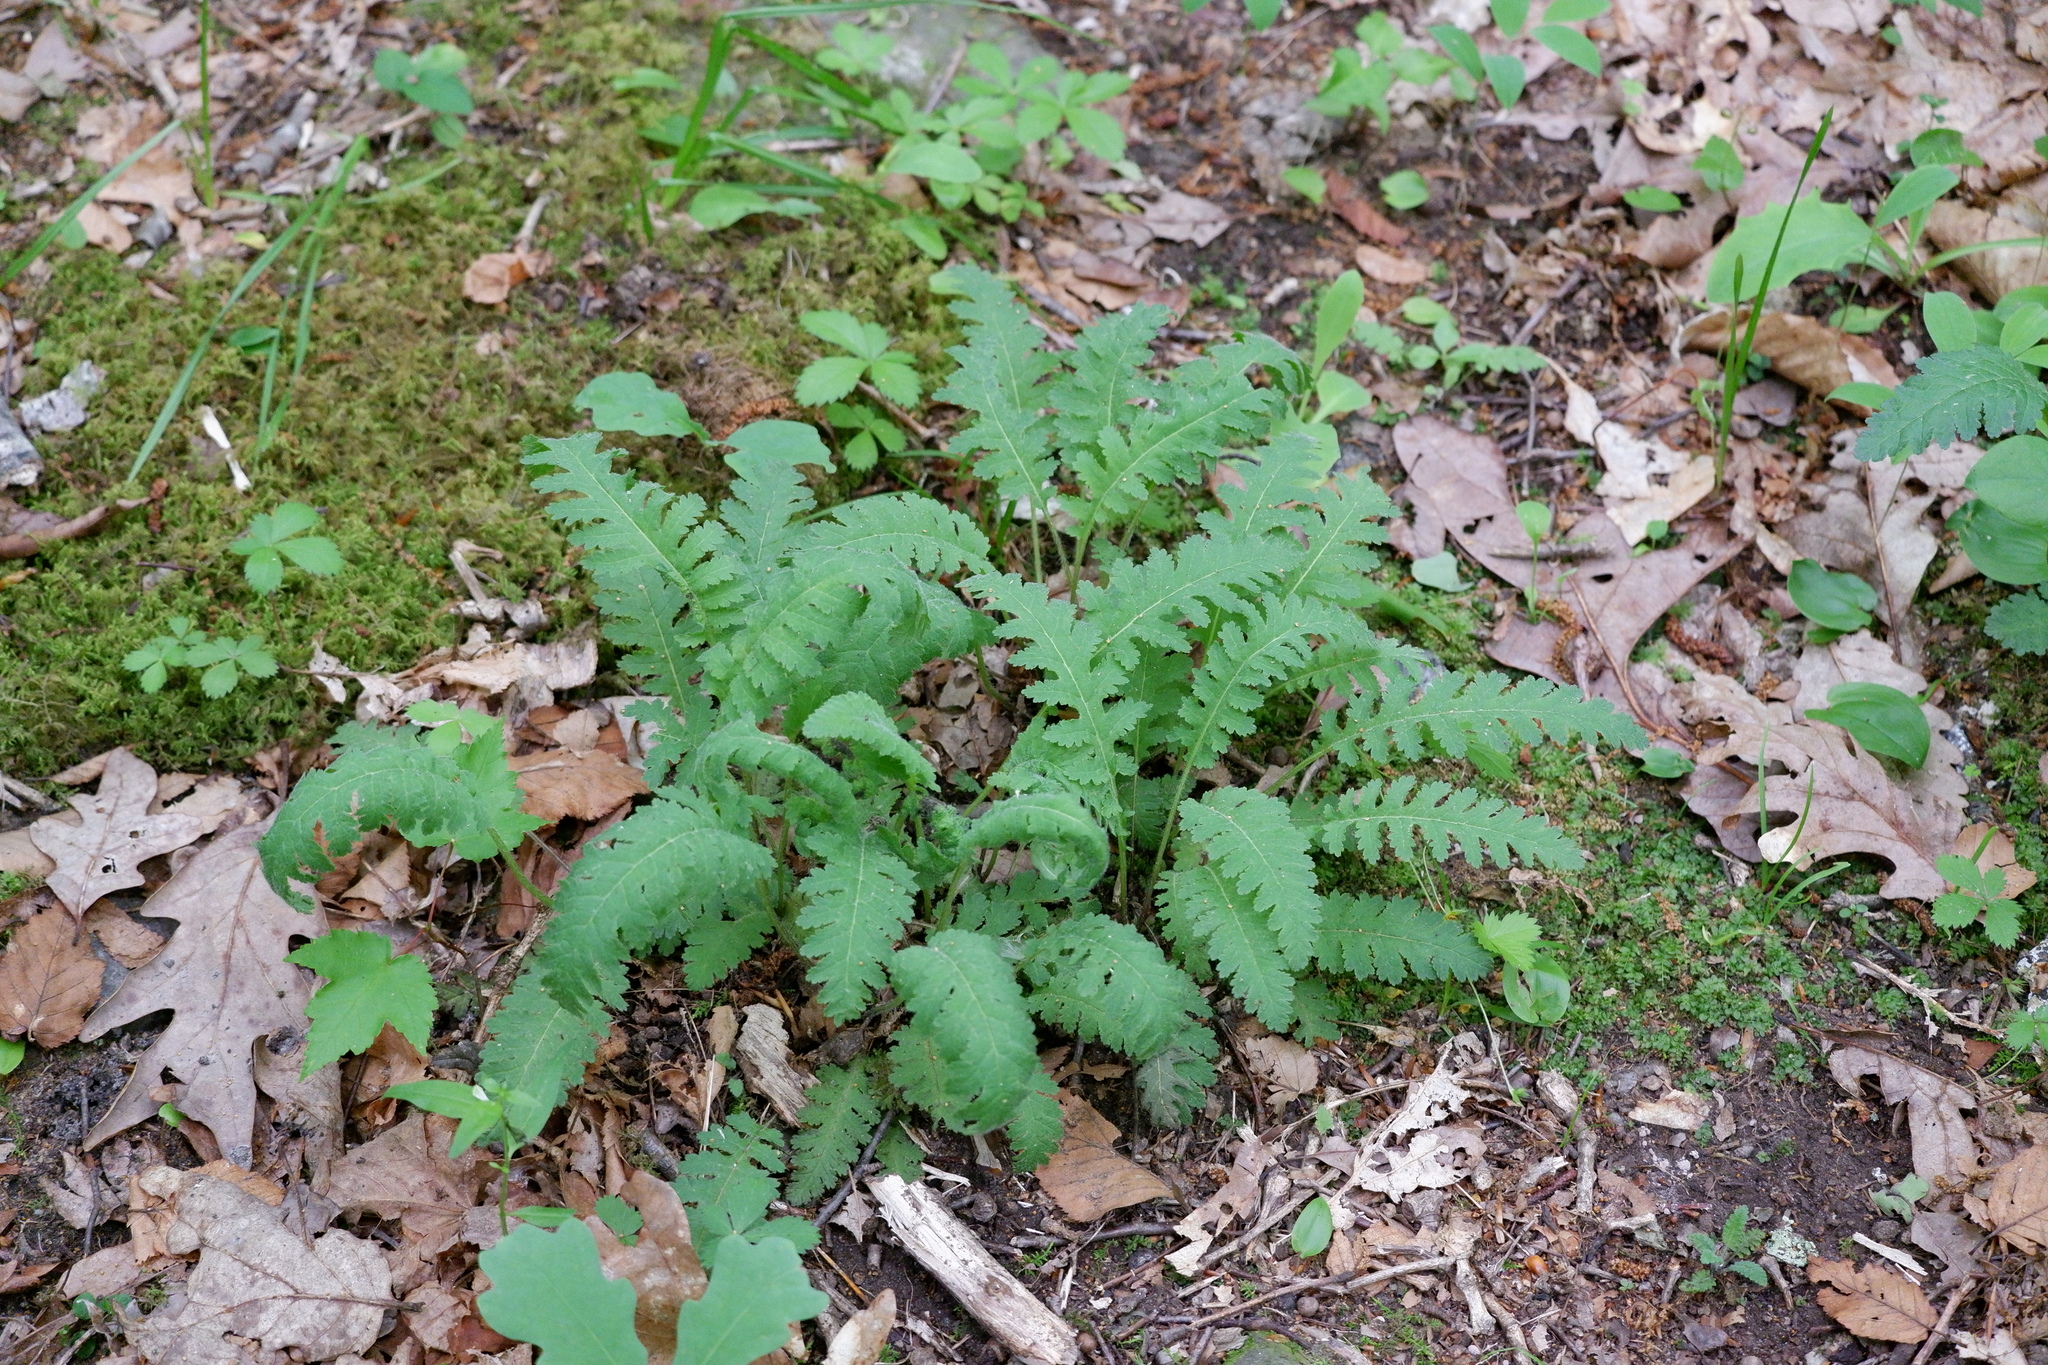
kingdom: Plantae
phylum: Tracheophyta
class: Magnoliopsida
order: Lamiales
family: Orobanchaceae
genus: Pedicularis
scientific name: Pedicularis canadensis
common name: Early lousewort
